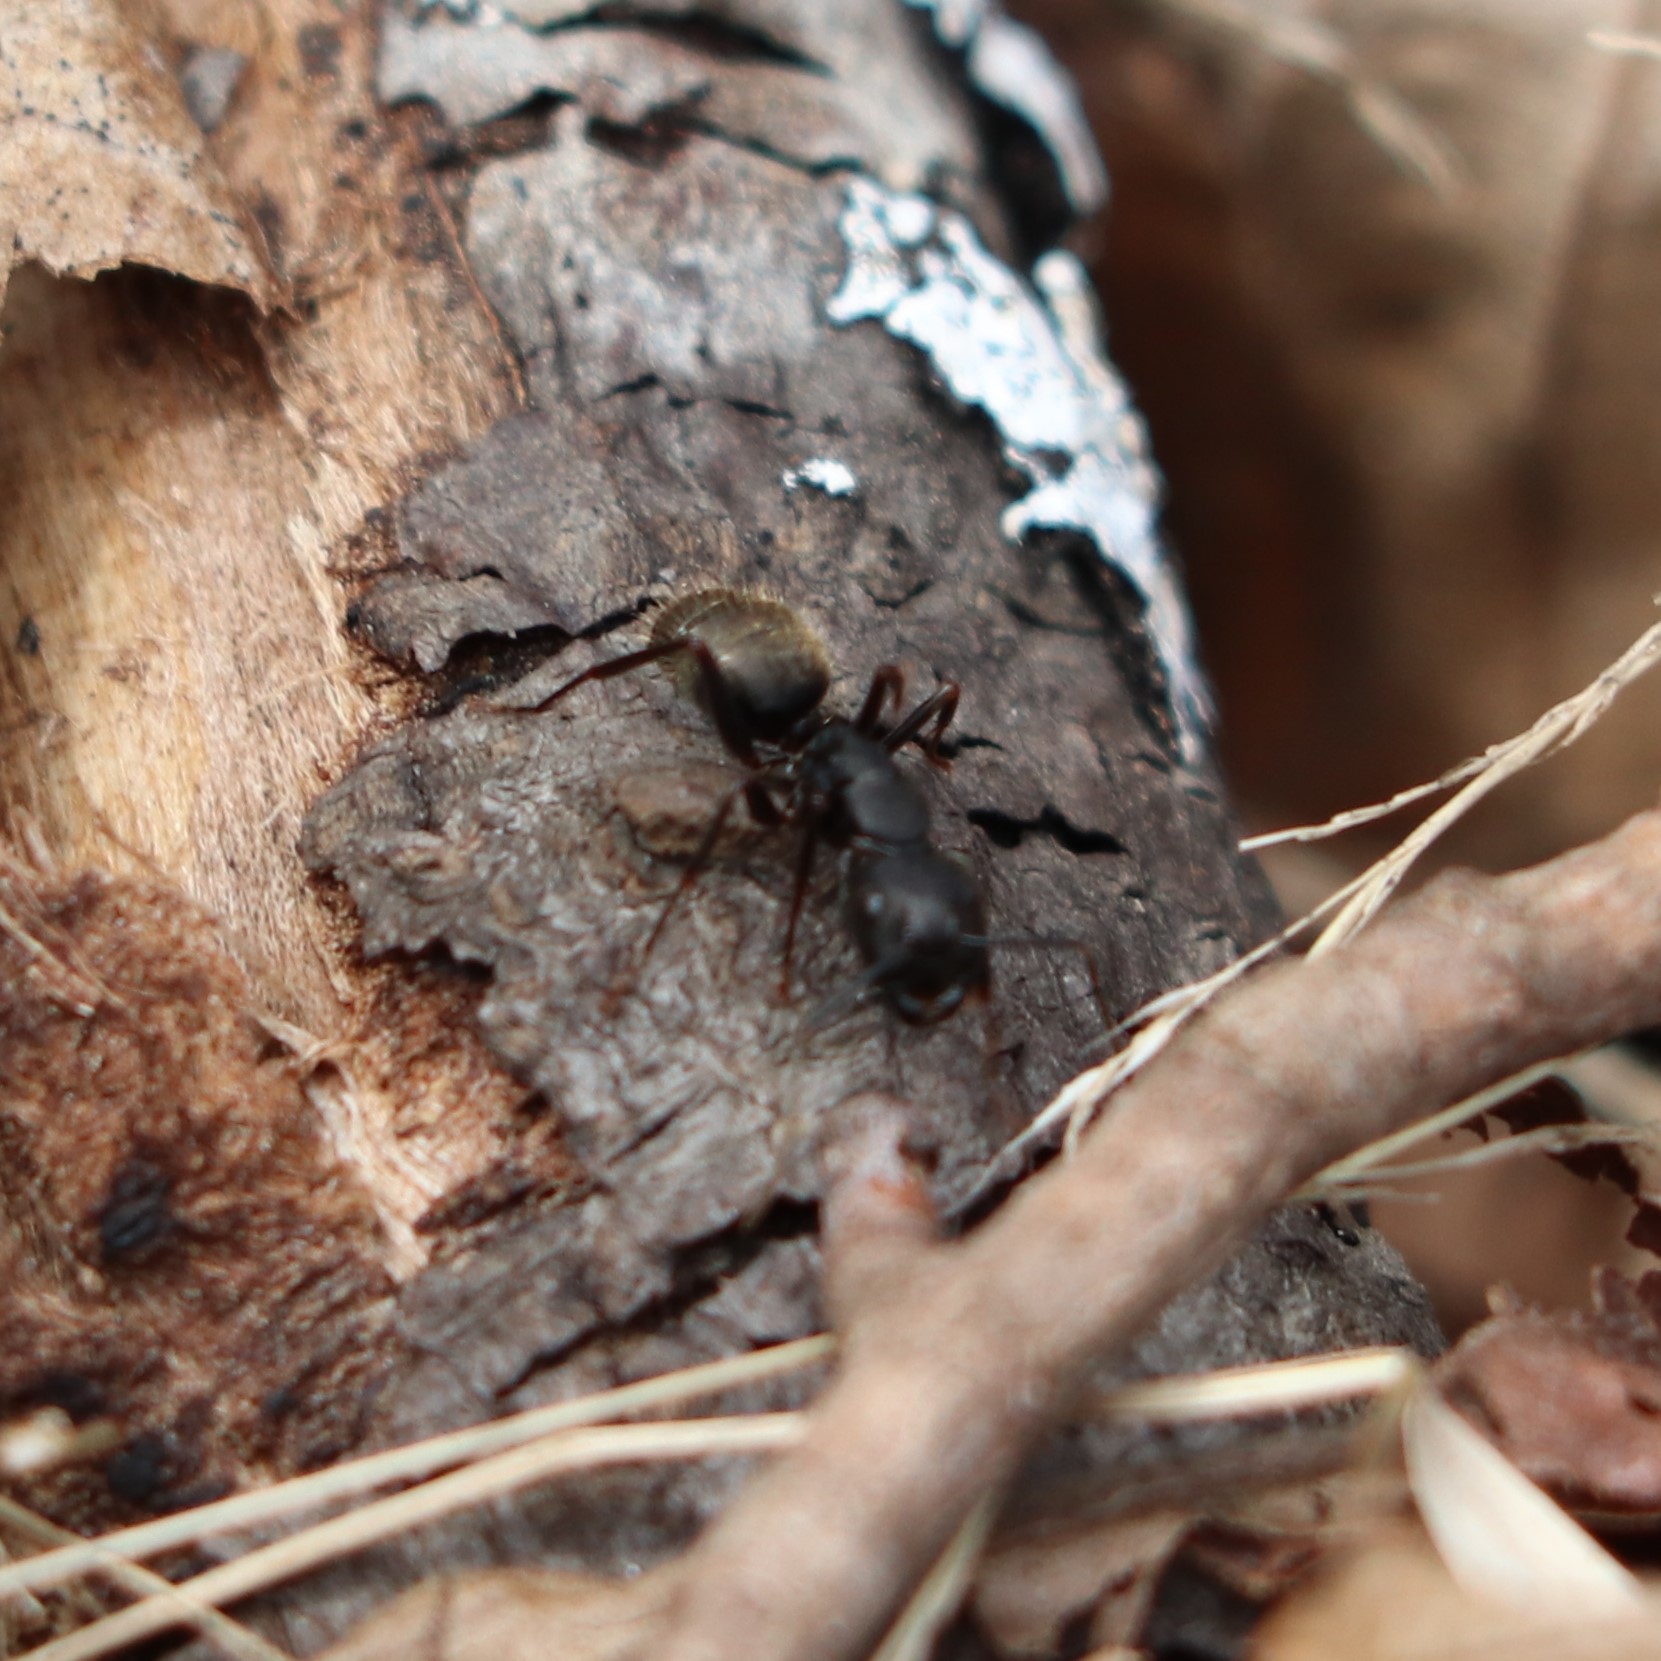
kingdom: Animalia
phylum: Arthropoda
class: Insecta
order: Hymenoptera
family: Formicidae
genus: Camponotus
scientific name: Camponotus pennsylvanicus
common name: Black carpenter ant
